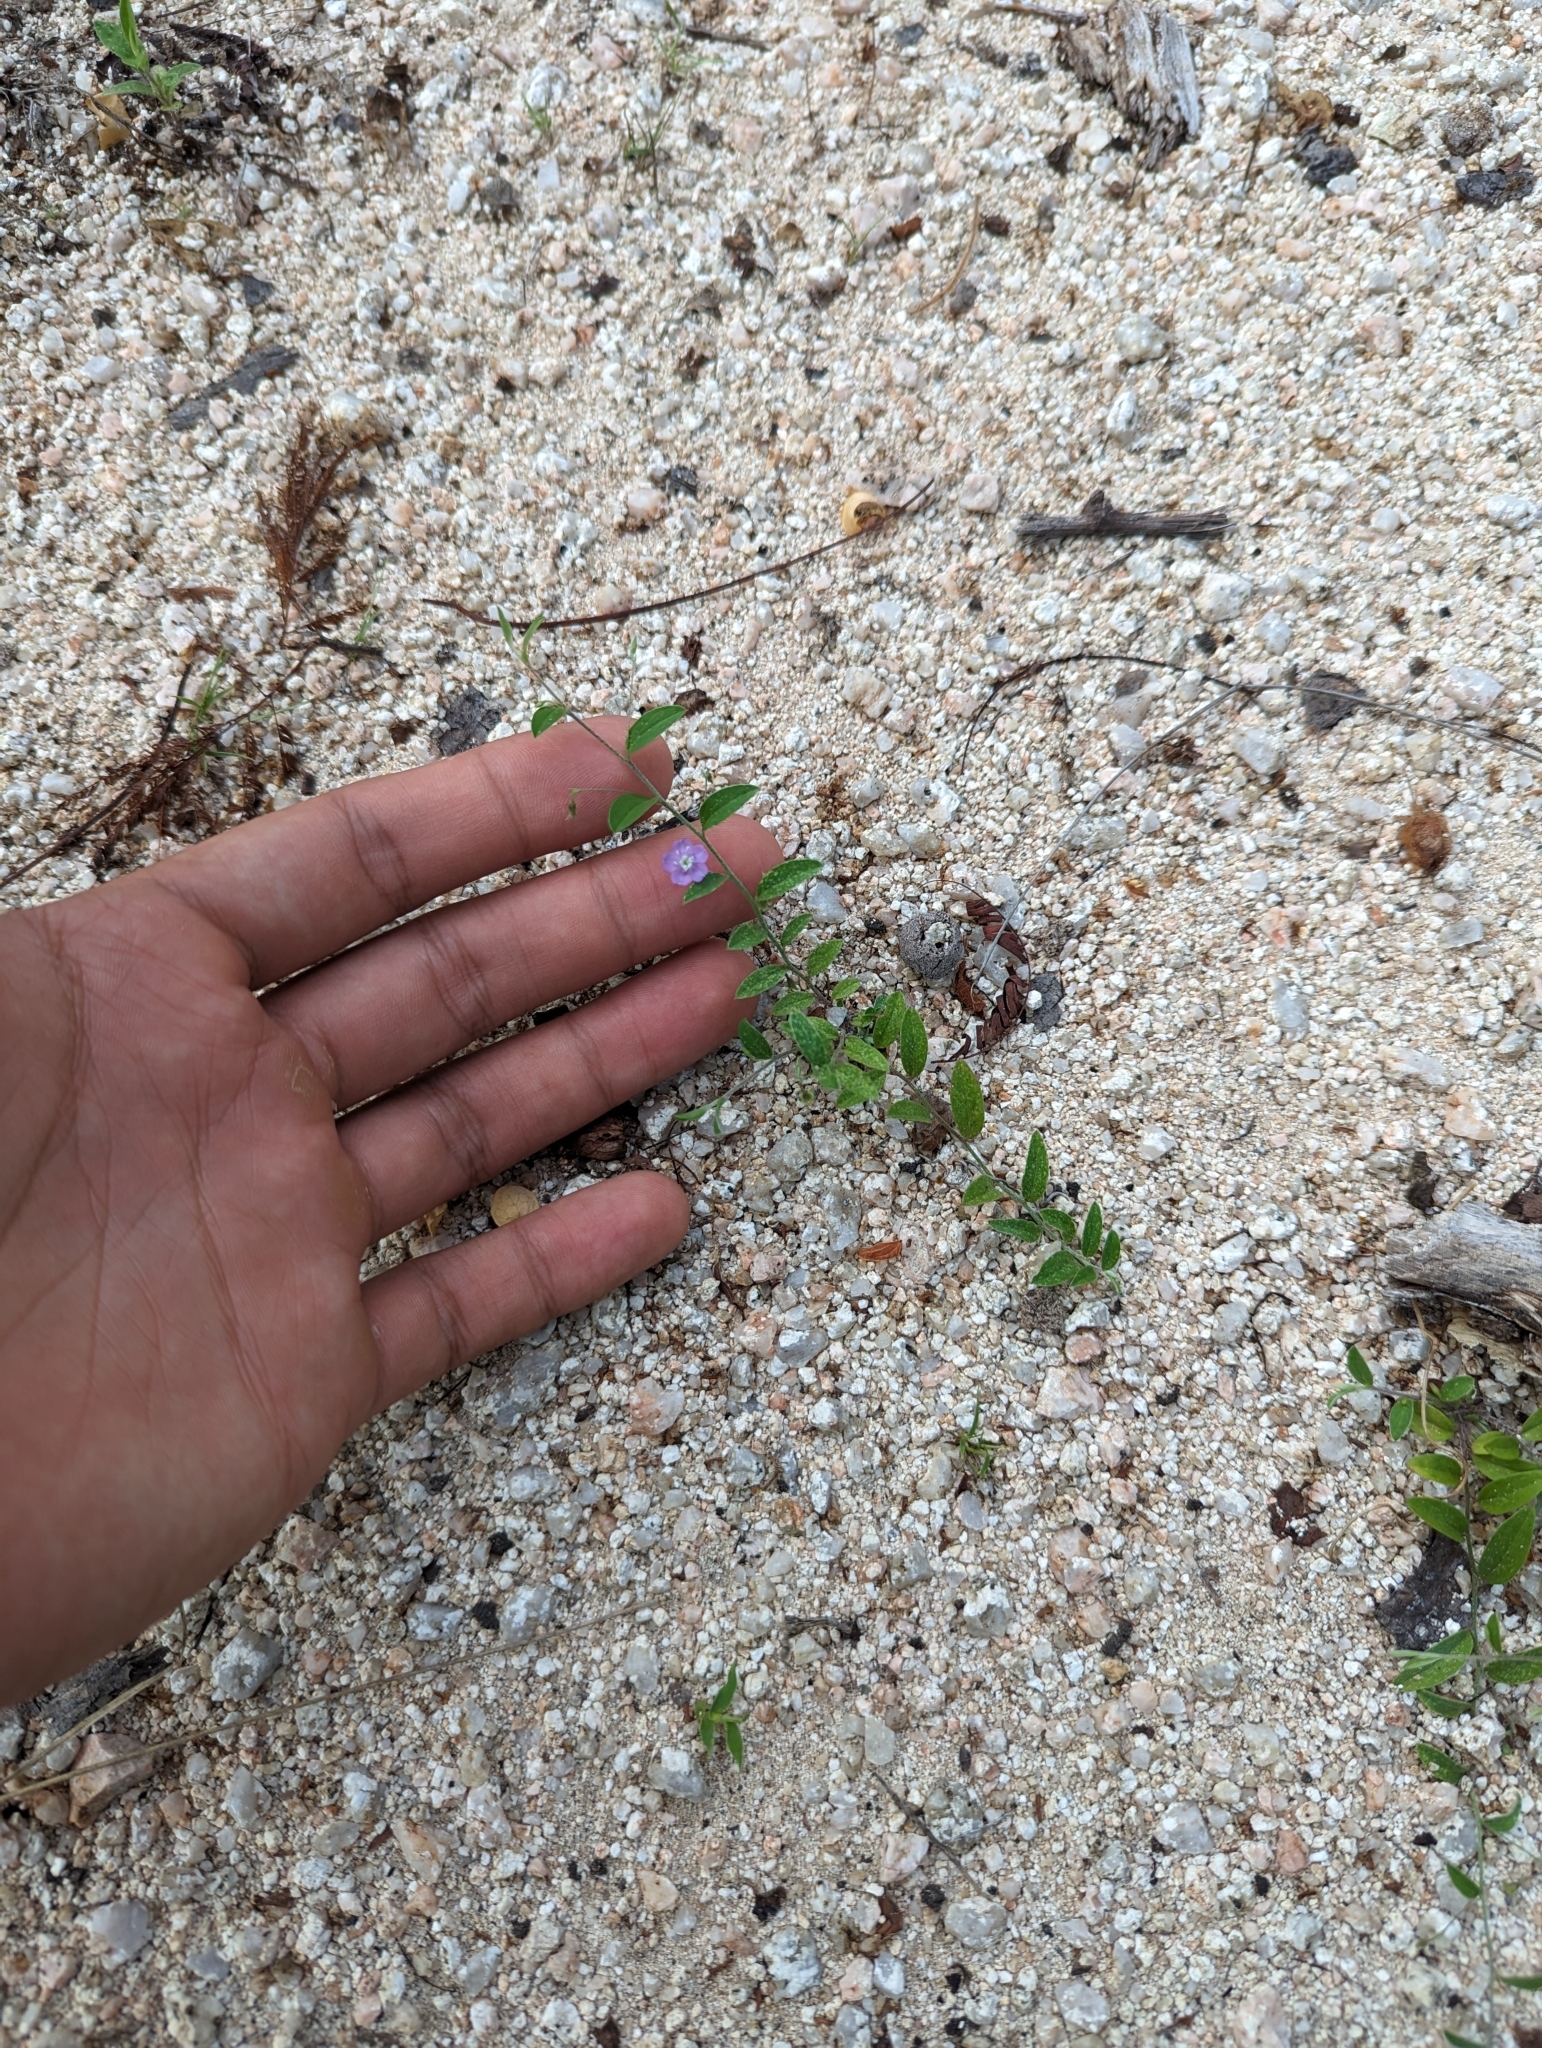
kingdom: Plantae
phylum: Tracheophyta
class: Magnoliopsida
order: Solanales
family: Convolvulaceae
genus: Evolvulus
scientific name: Evolvulus alsinoides
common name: Slender dwarf morning-glory
